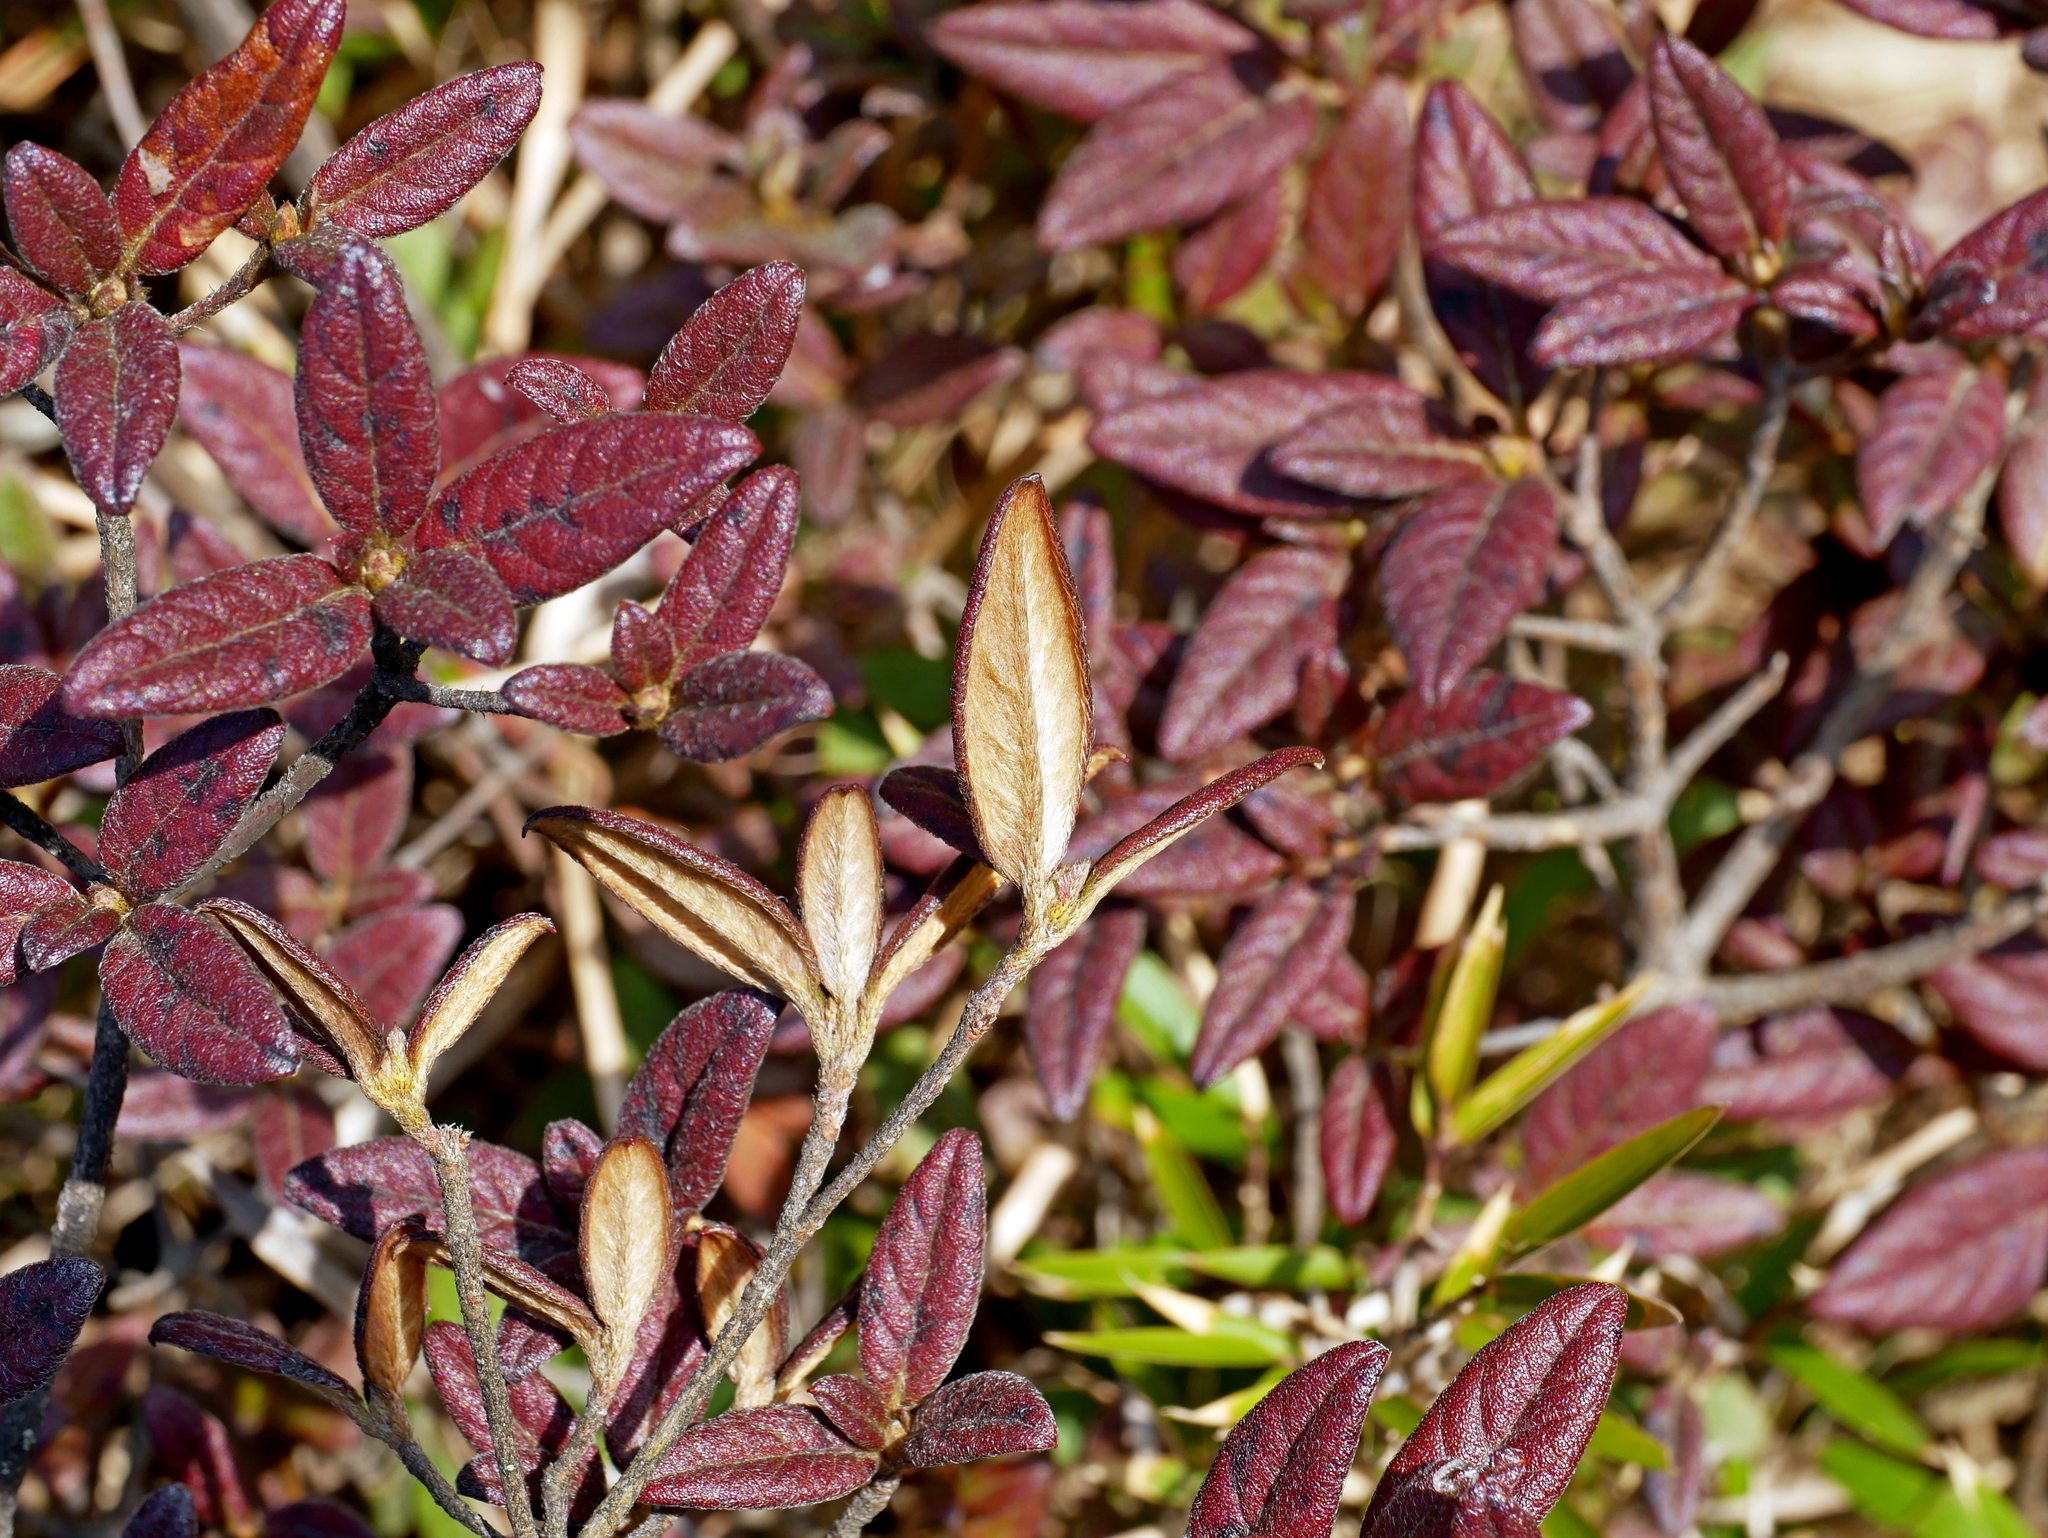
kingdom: Plantae
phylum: Tracheophyta
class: Magnoliopsida
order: Ericales
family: Ericaceae
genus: Rhododendron
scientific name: Rhododendron taiwanalpinum
